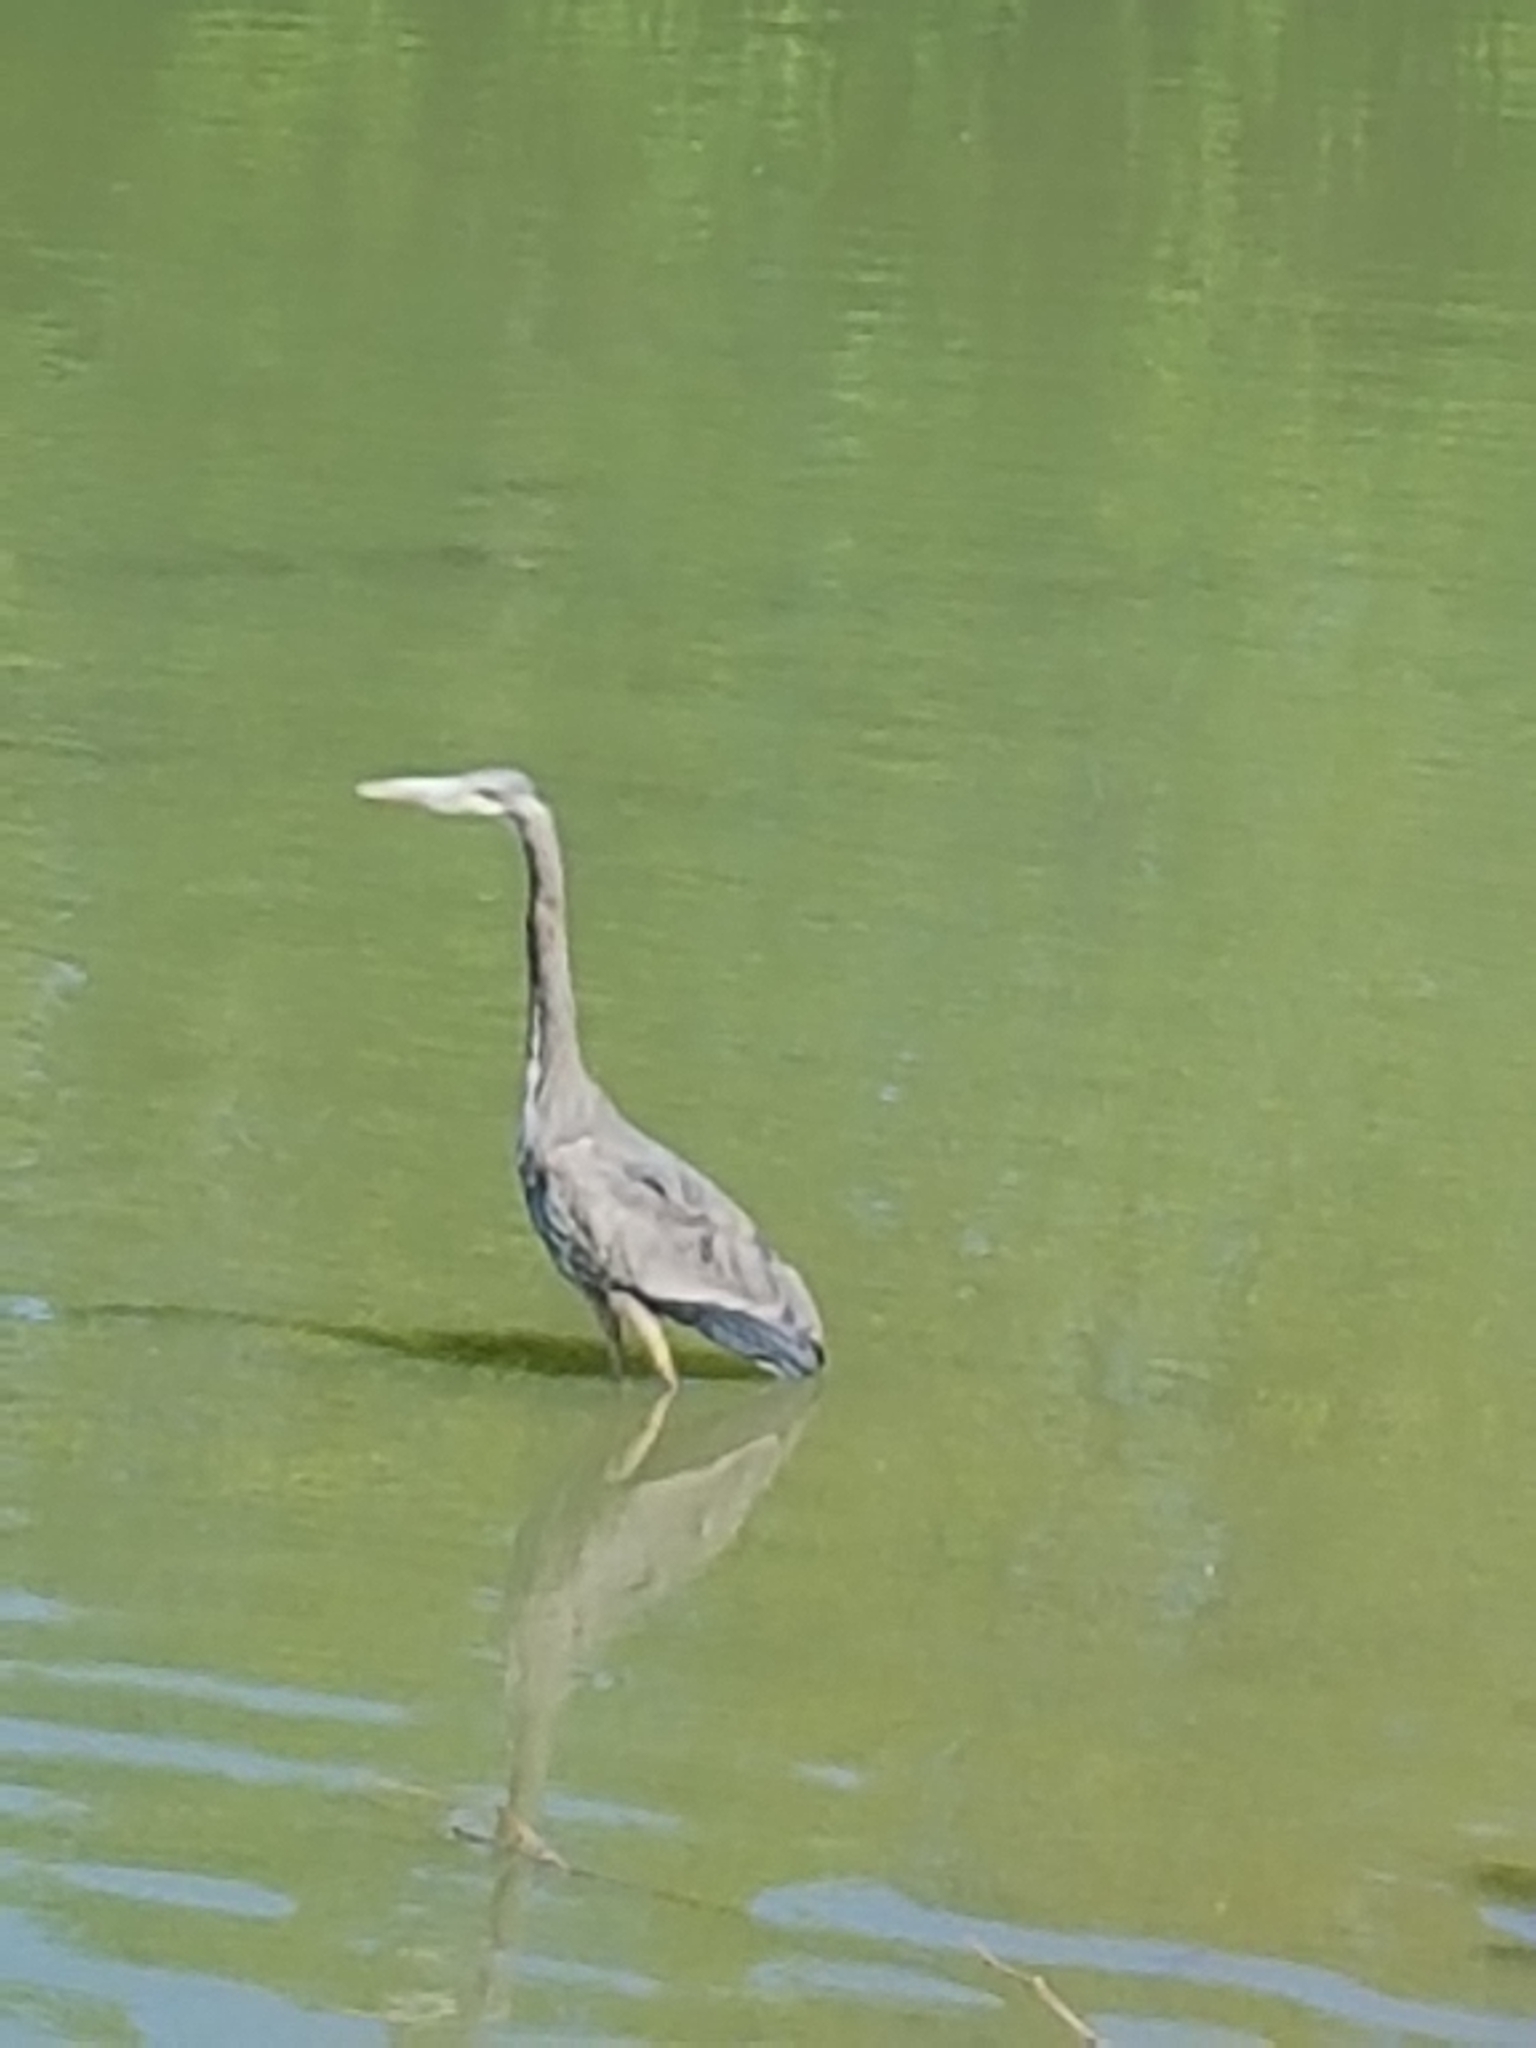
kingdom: Animalia
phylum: Chordata
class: Aves
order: Pelecaniformes
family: Ardeidae
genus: Ardea
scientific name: Ardea herodias
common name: Great blue heron
